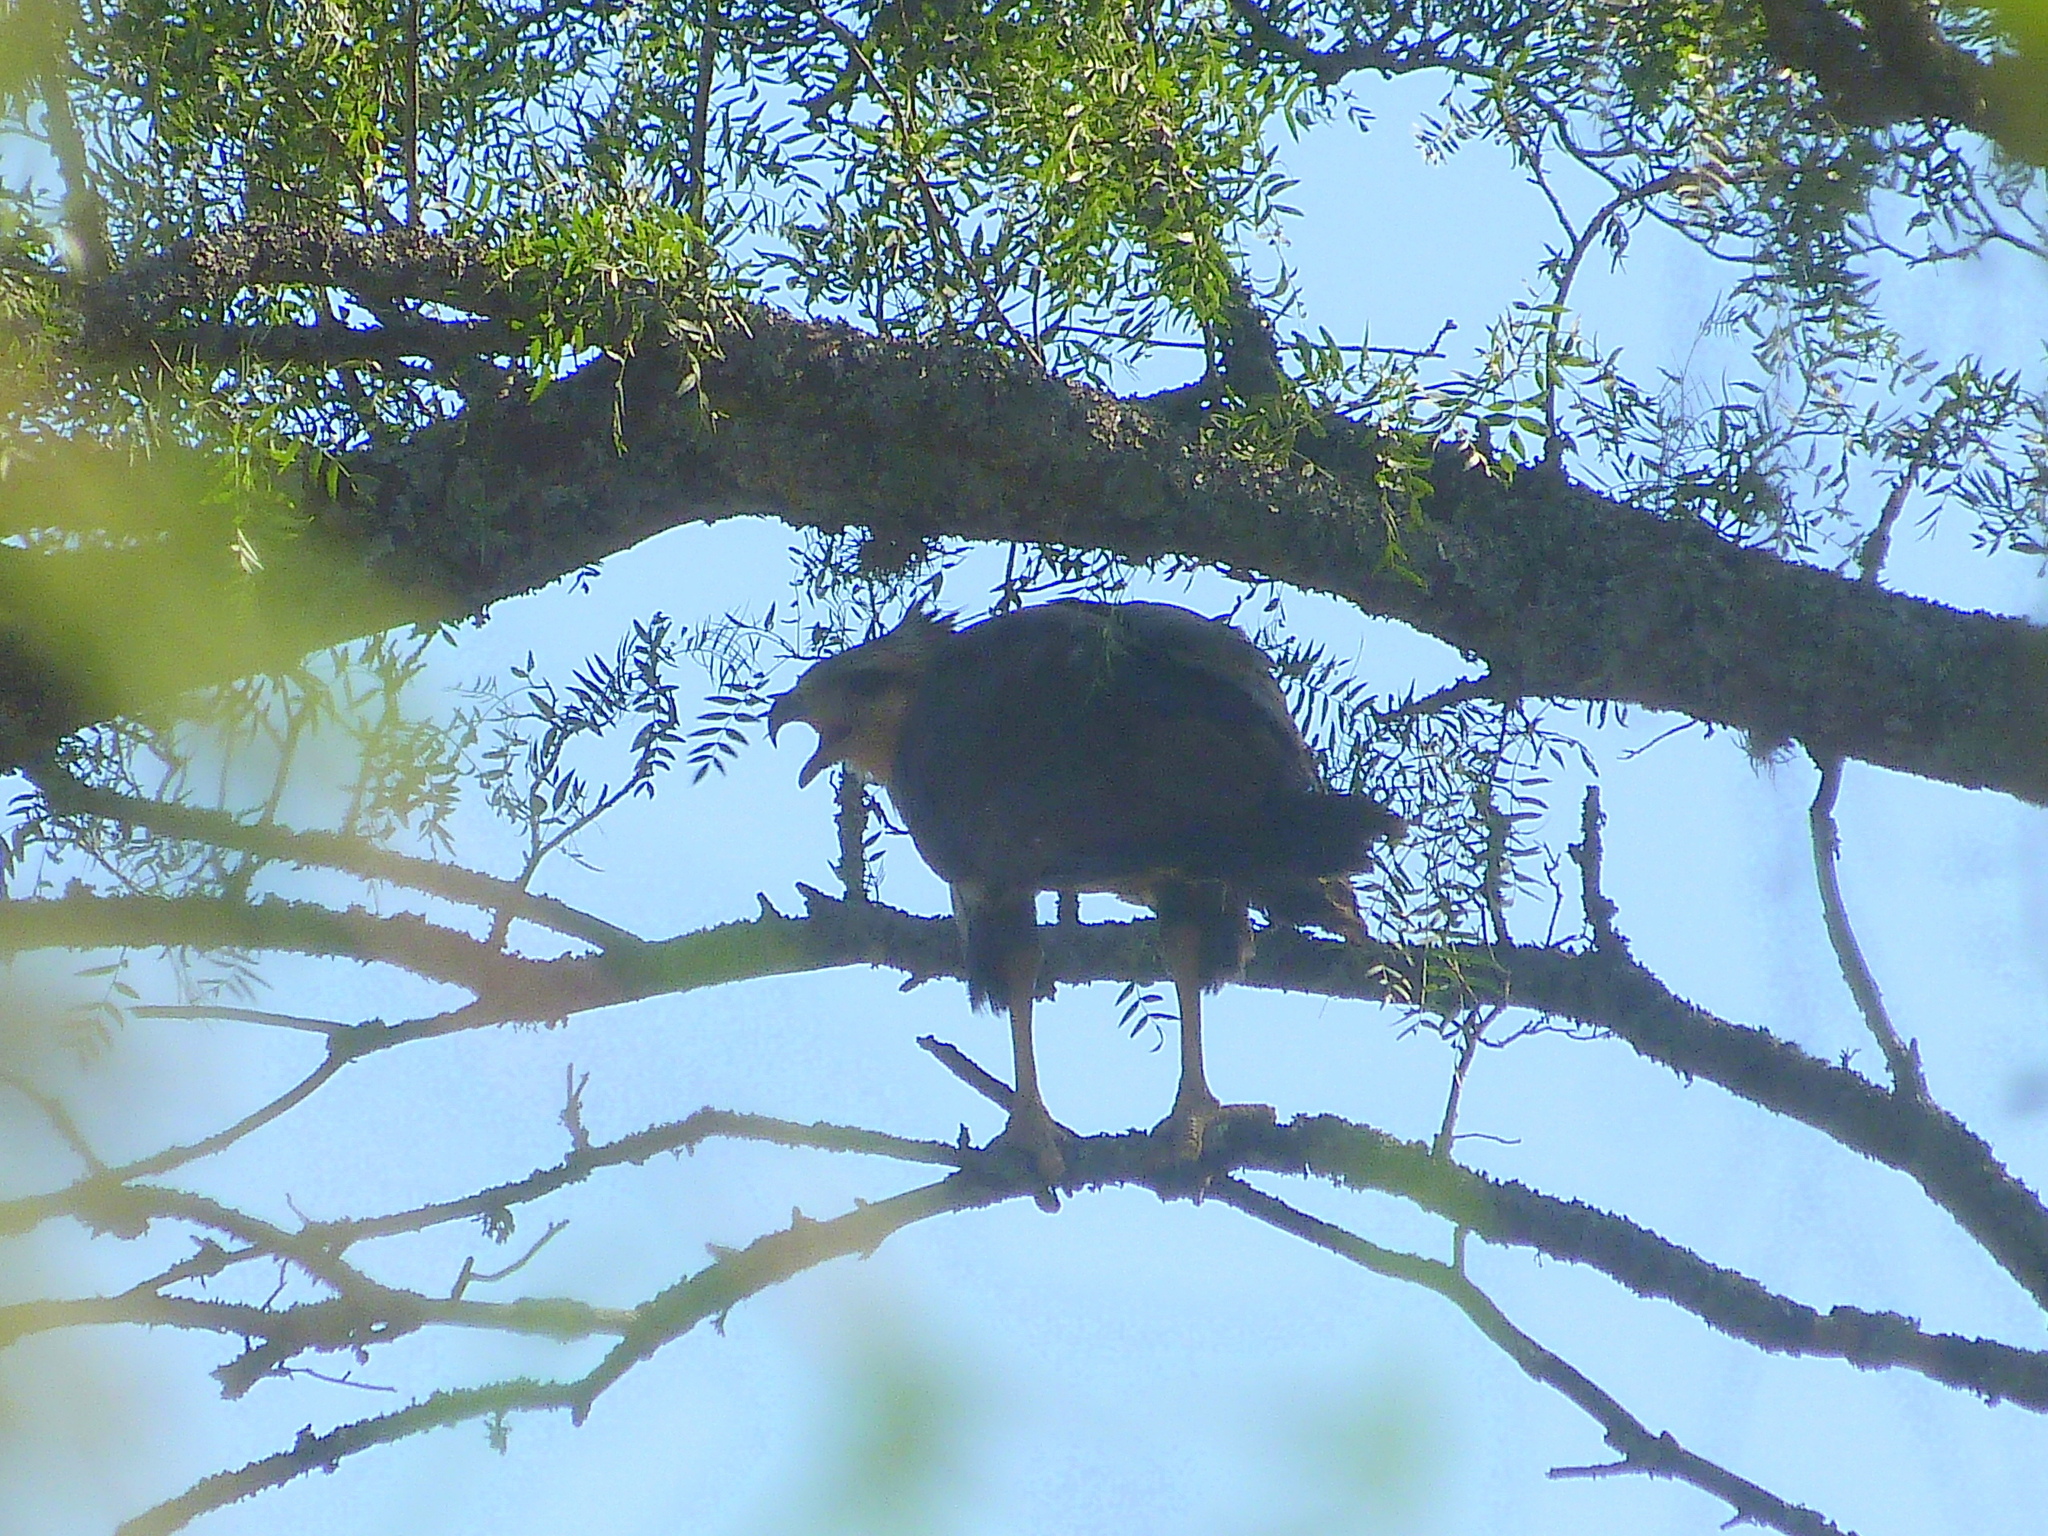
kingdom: Animalia
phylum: Chordata
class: Aves
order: Accipitriformes
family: Accipitridae
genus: Harpyhaliaetus
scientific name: Harpyhaliaetus coronatus
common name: Crowned solitary eagle
